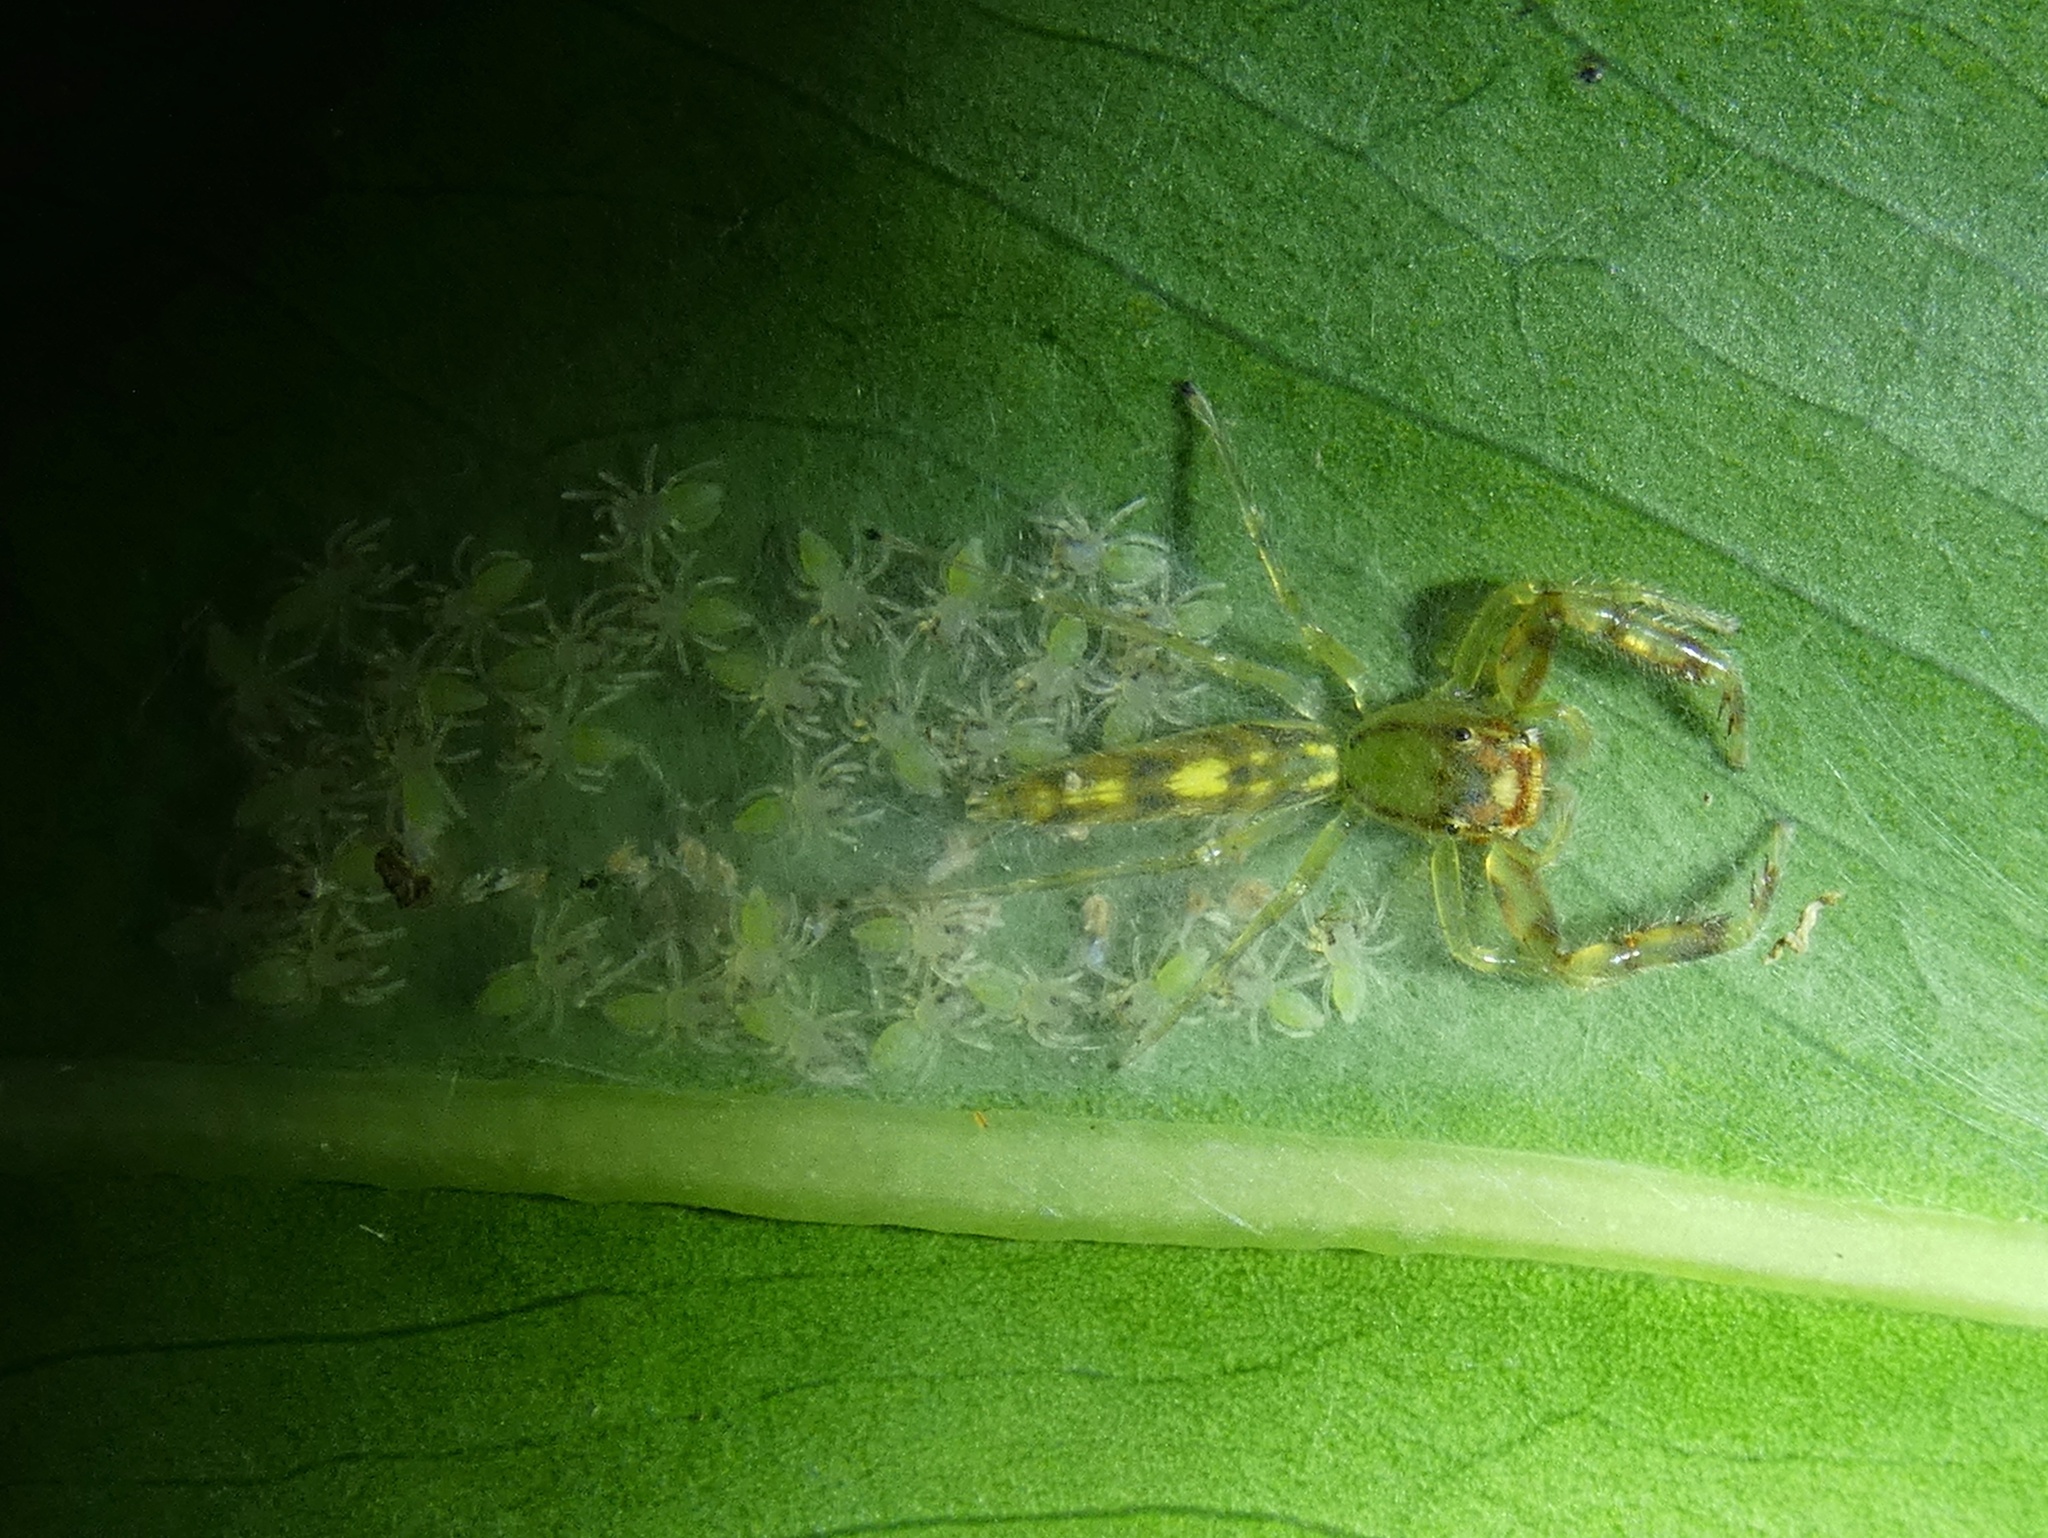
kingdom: Animalia
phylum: Arthropoda
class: Arachnida
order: Araneae
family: Salticidae
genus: Itata
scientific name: Itata
